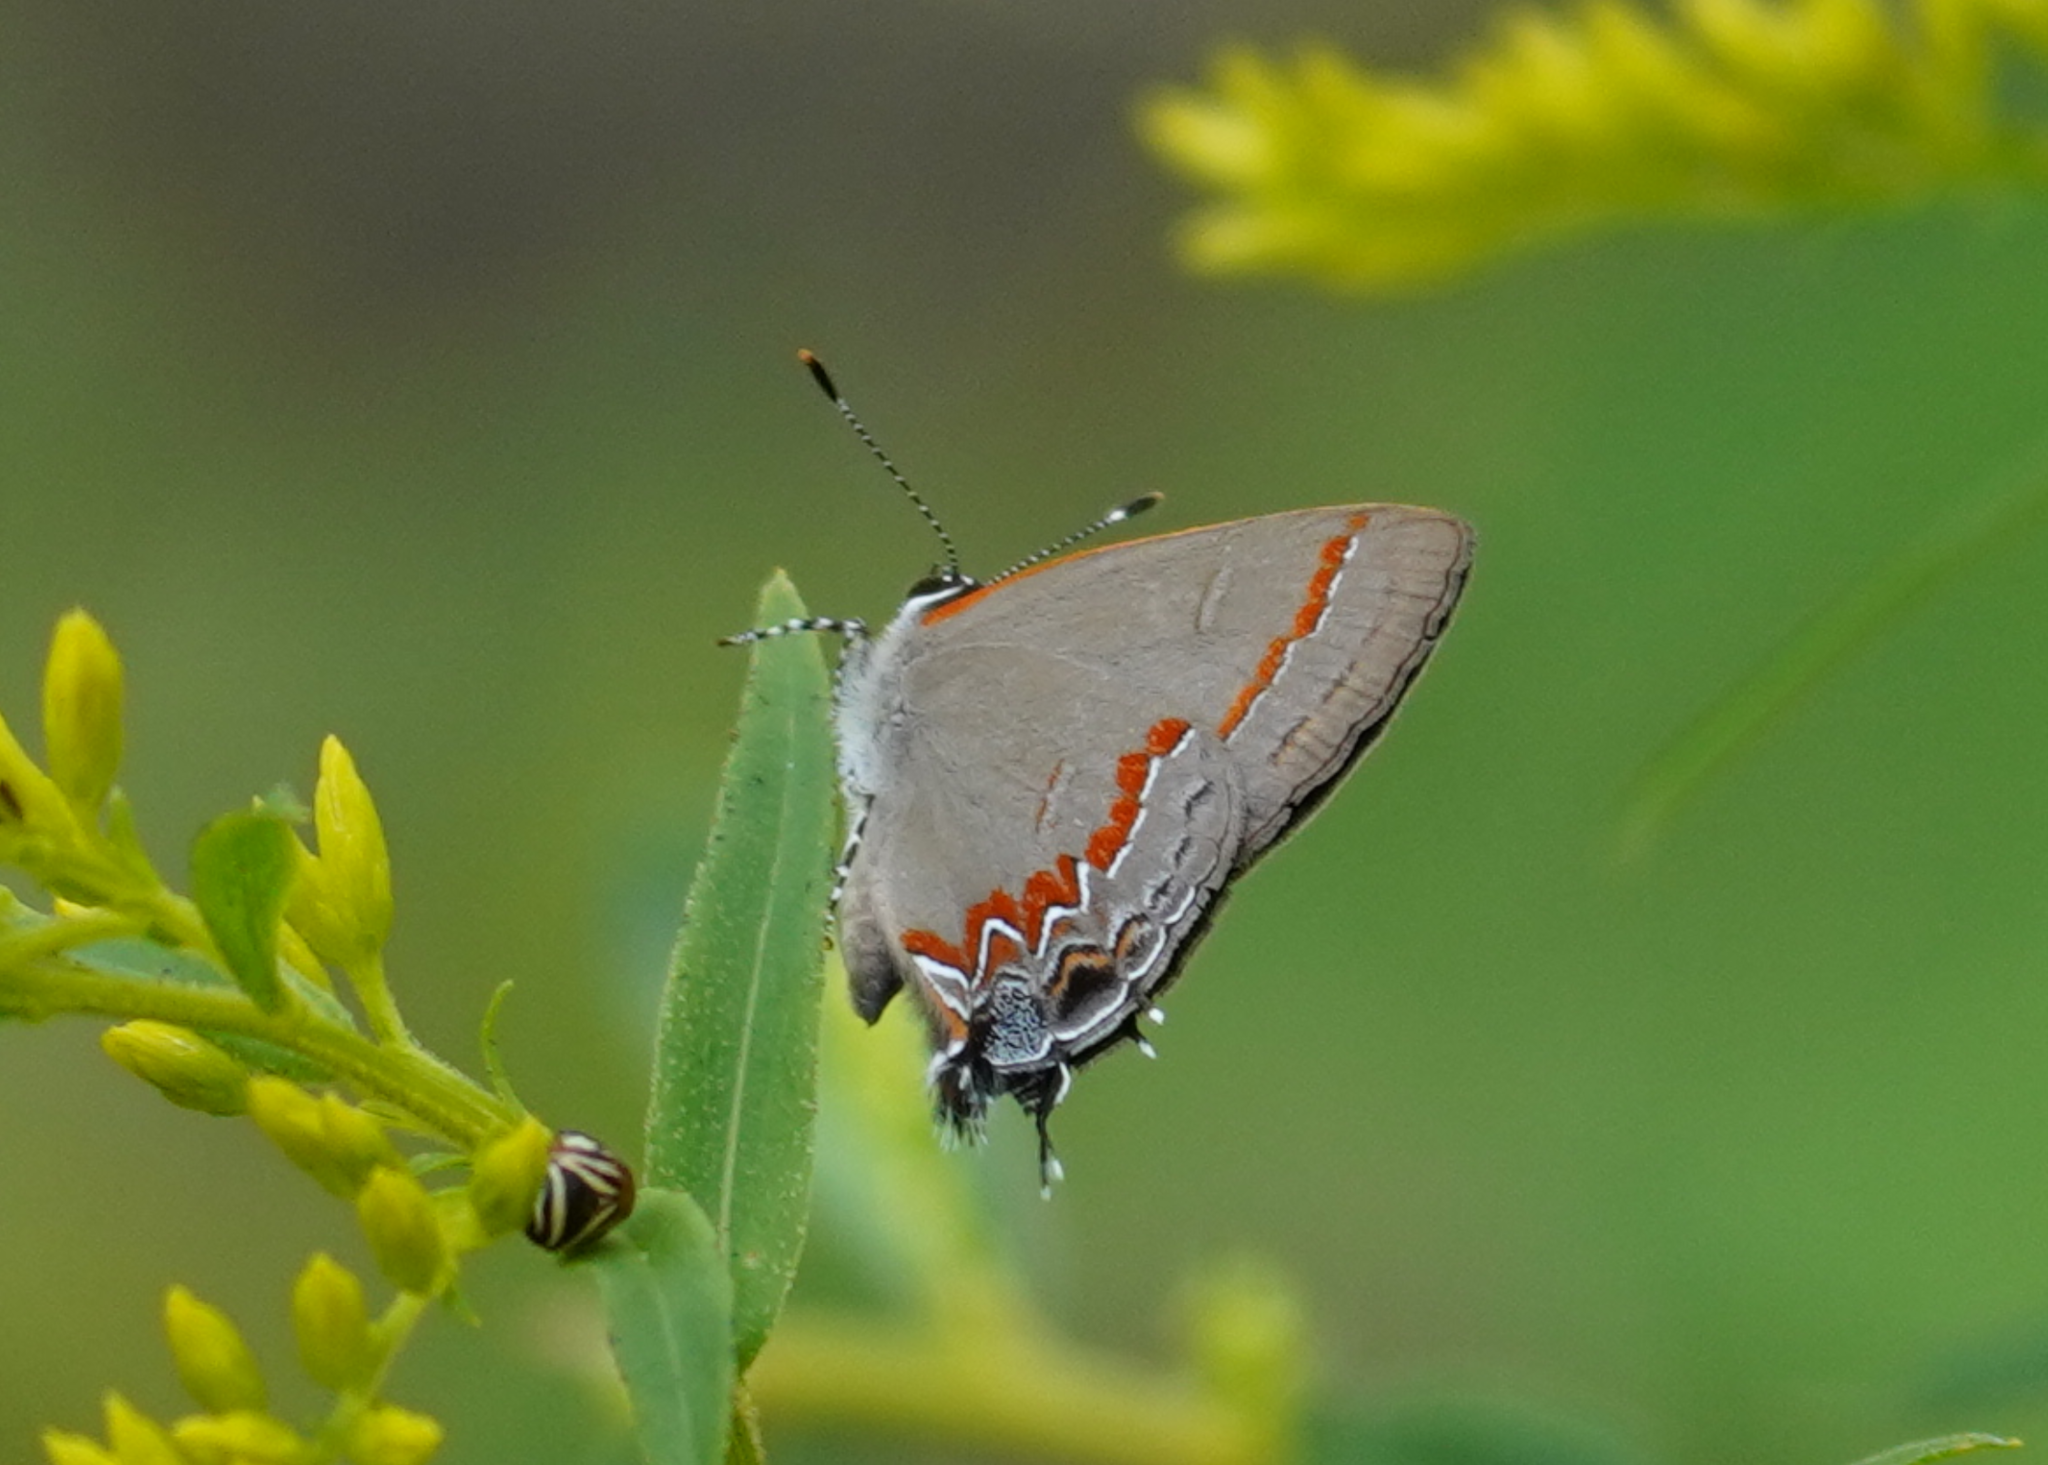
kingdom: Animalia
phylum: Arthropoda
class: Insecta
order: Lepidoptera
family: Lycaenidae
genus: Calycopis
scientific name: Calycopis cecrops
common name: Red-banded hairstreak
